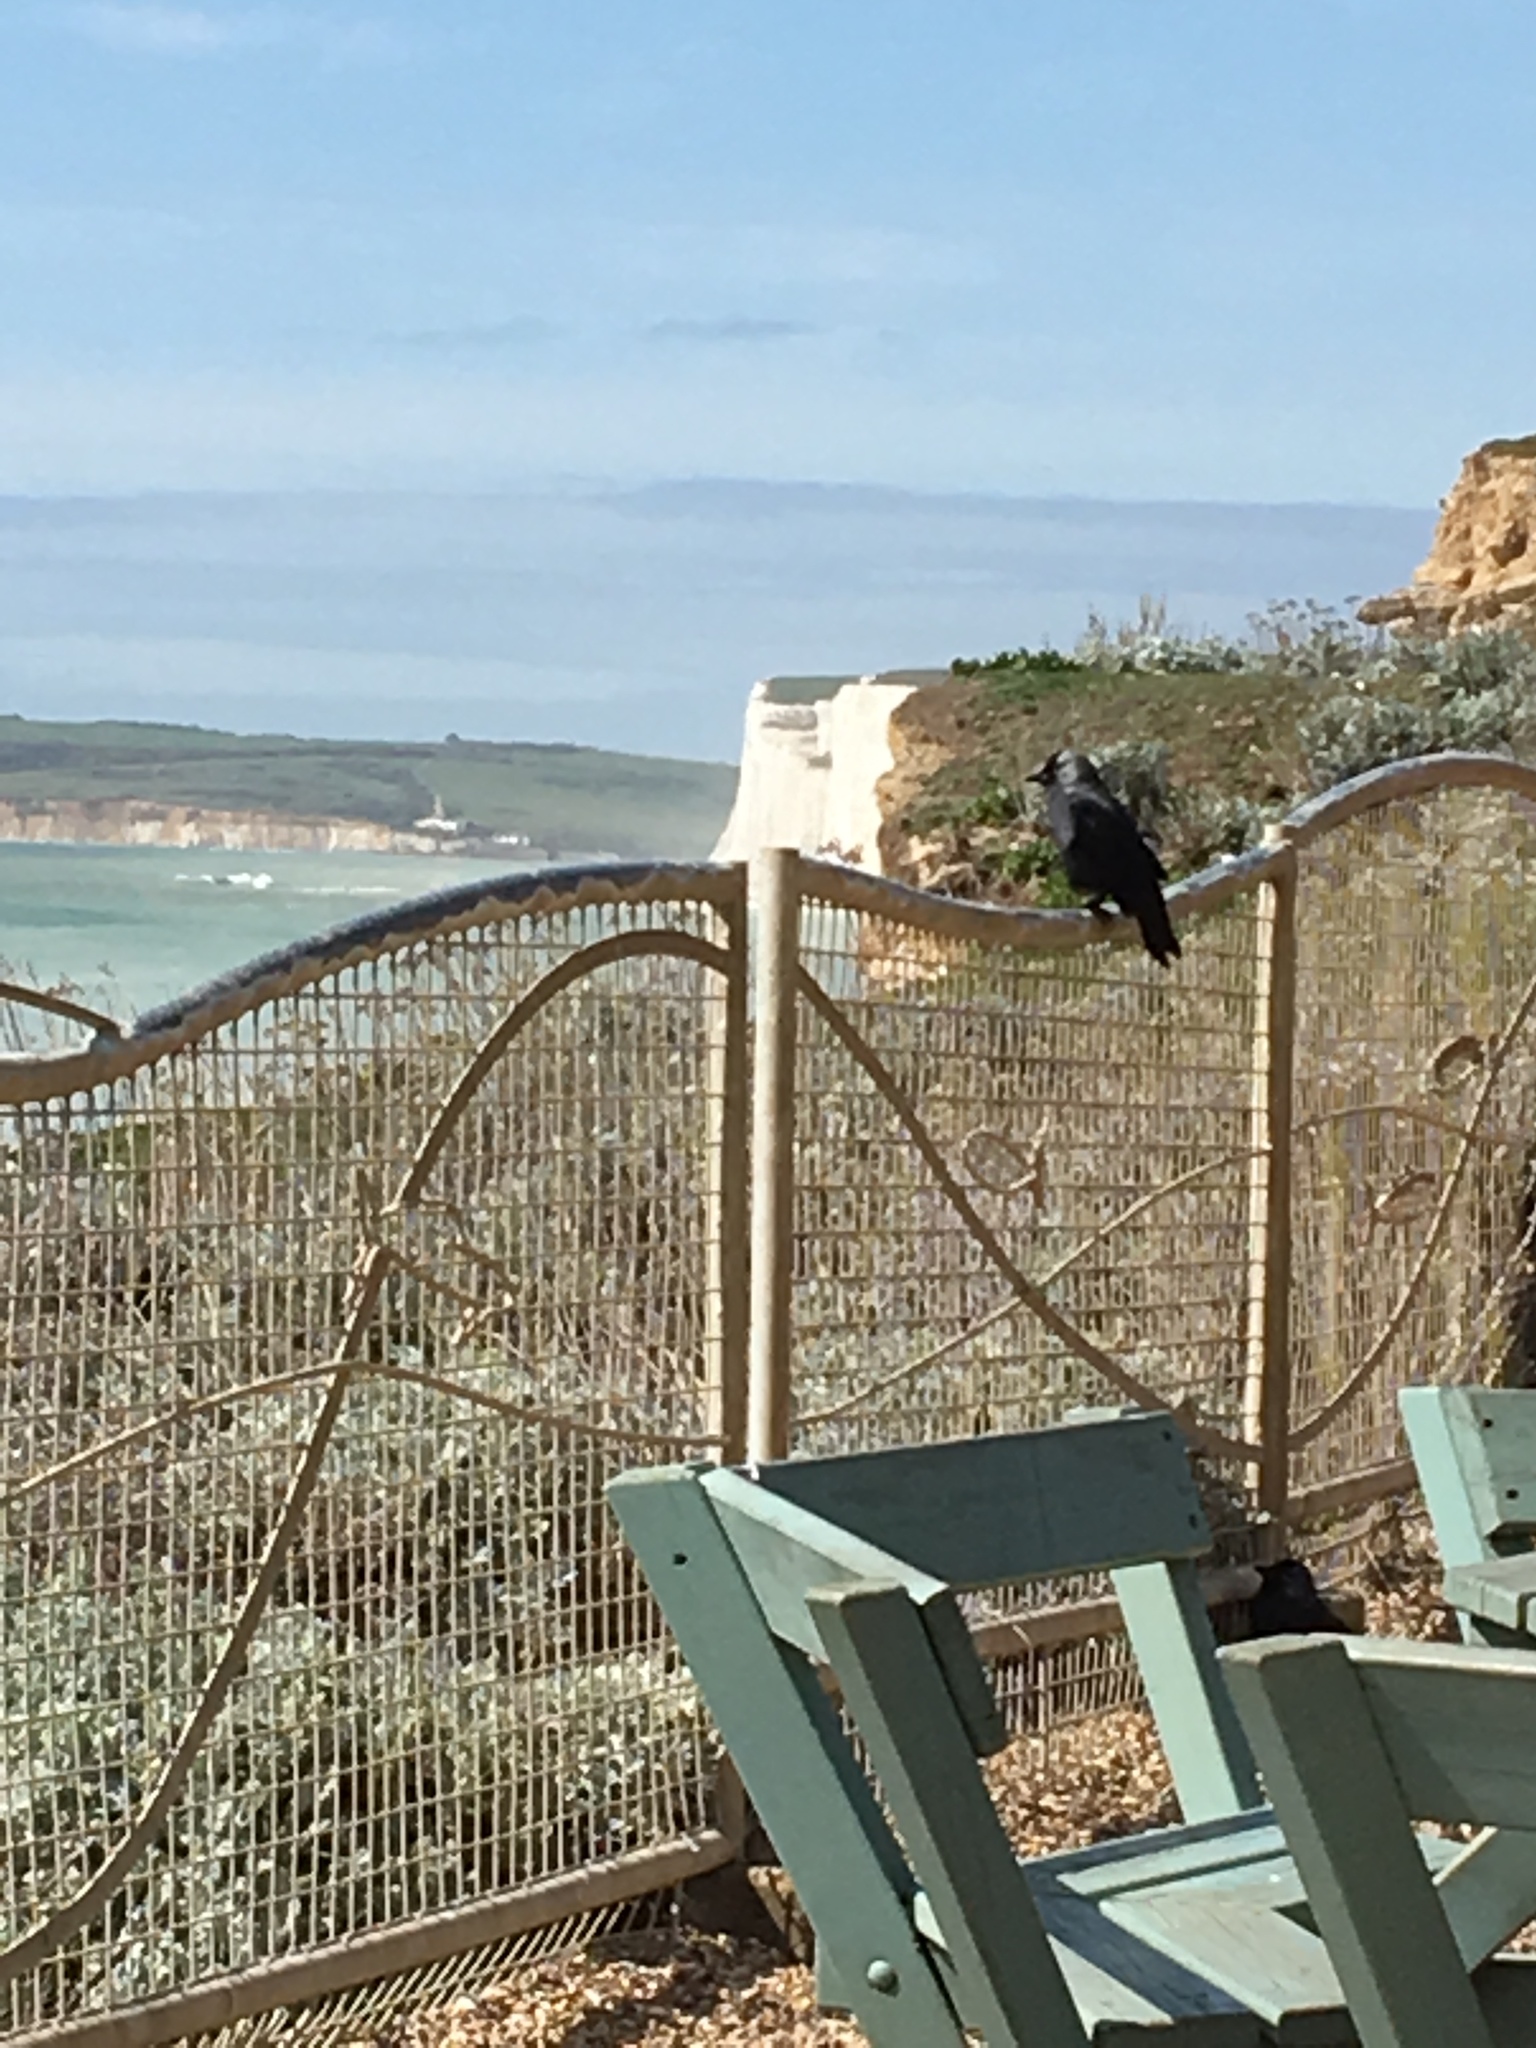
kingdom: Animalia
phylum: Chordata
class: Aves
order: Passeriformes
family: Corvidae
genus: Coloeus
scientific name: Coloeus monedula
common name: Western jackdaw
